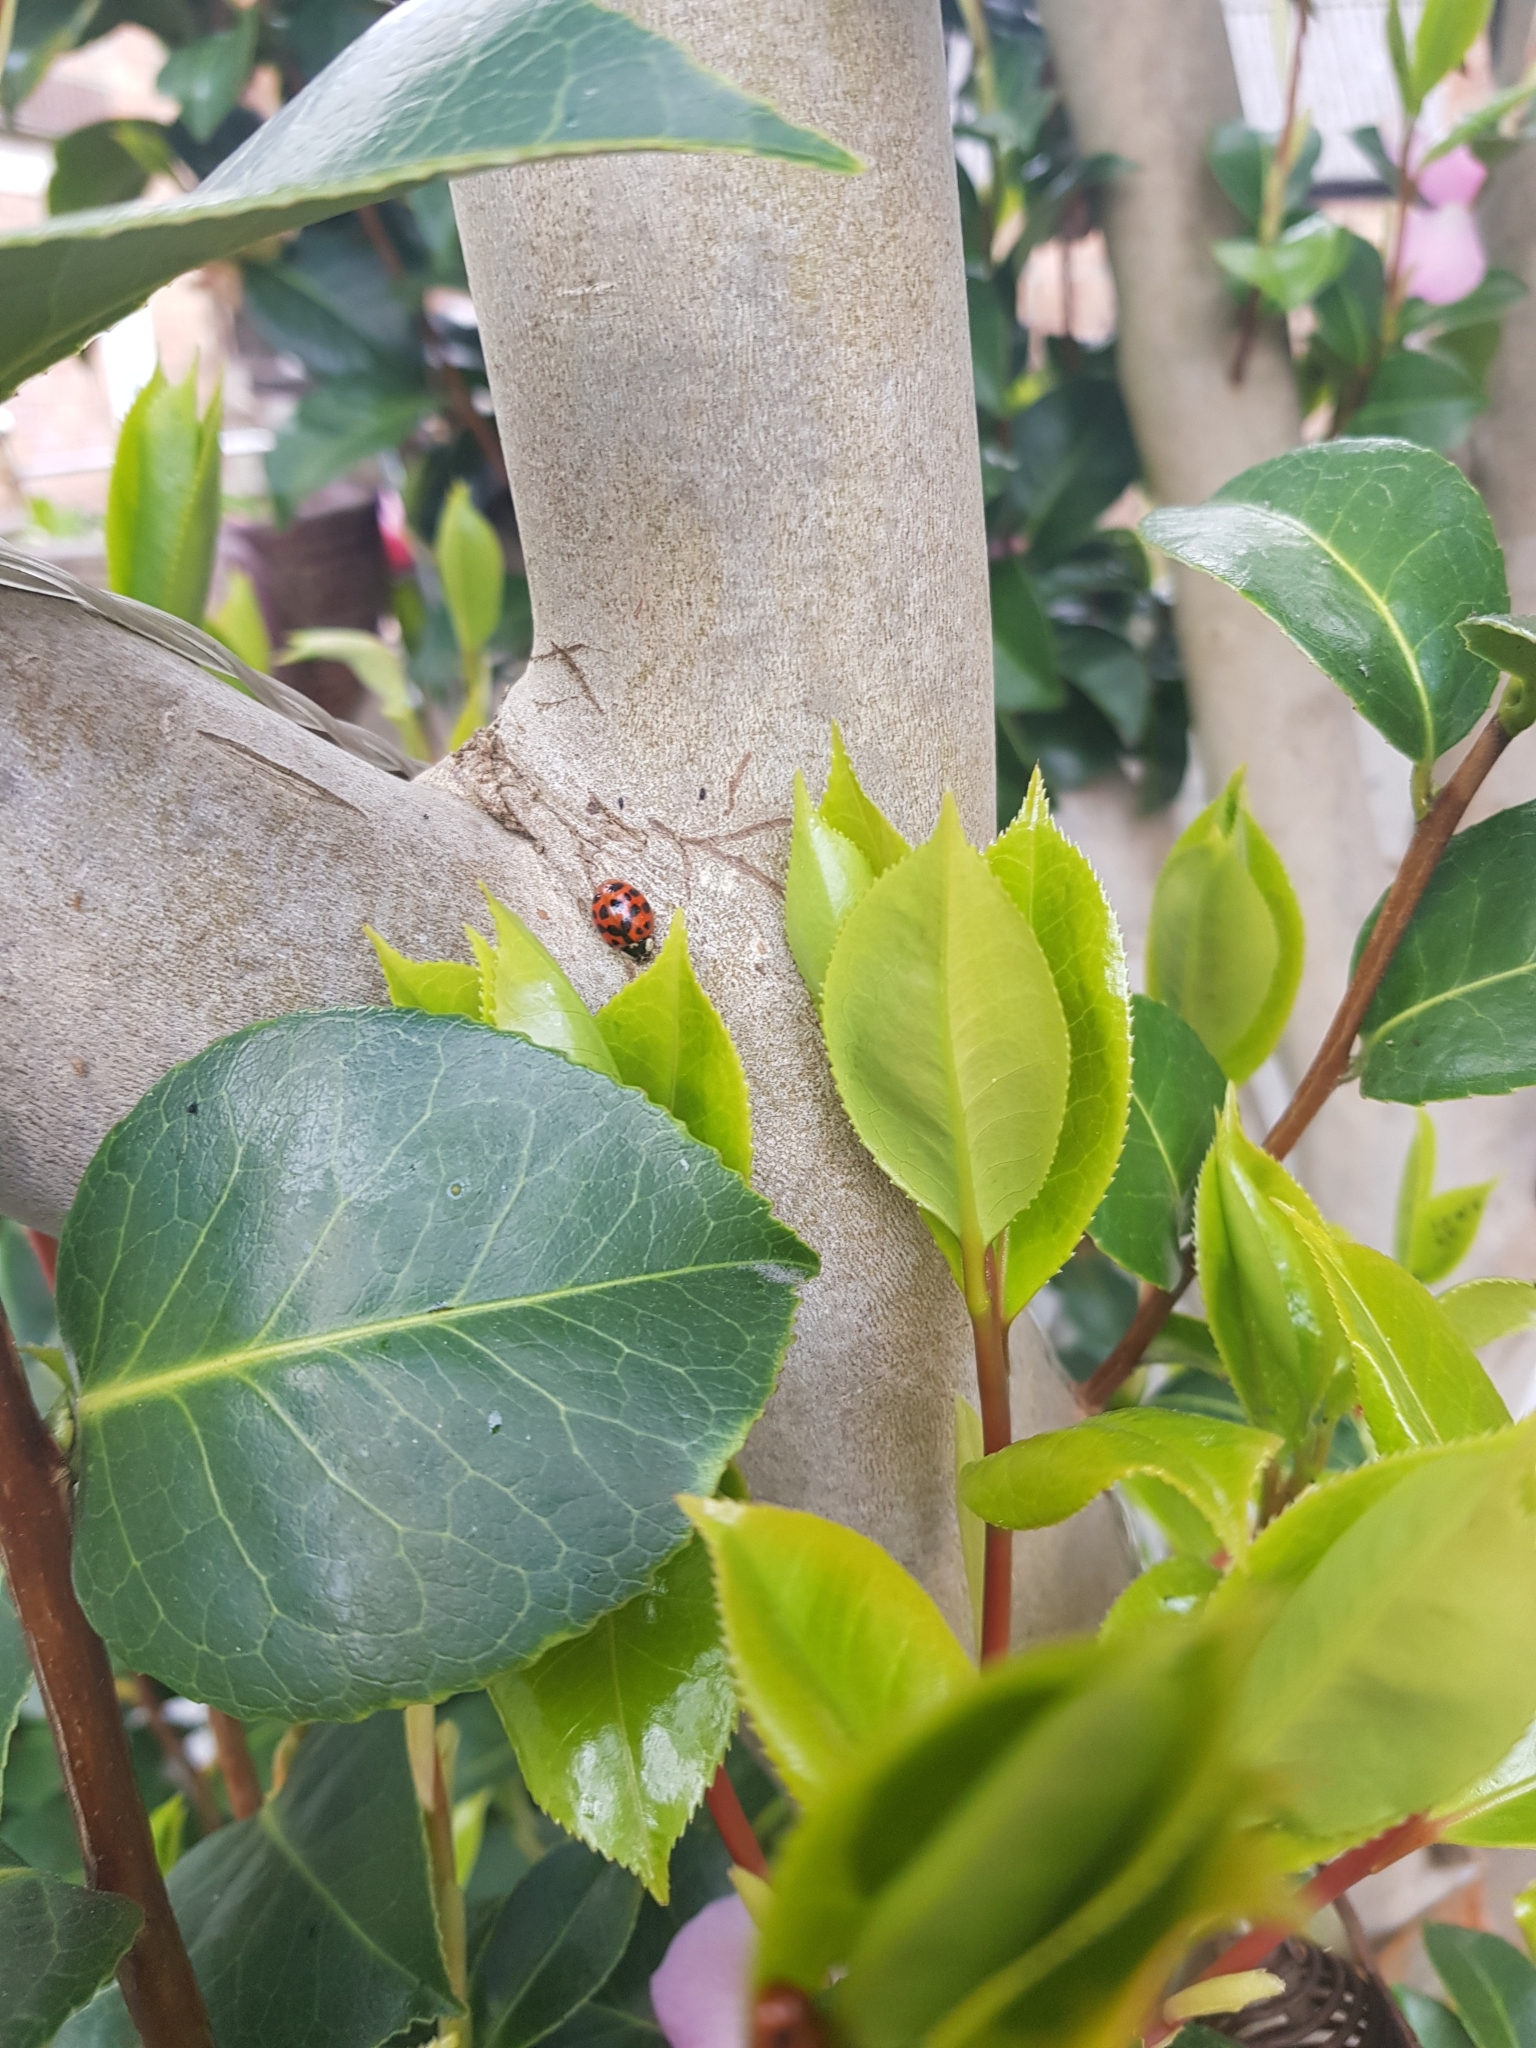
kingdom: Animalia
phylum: Arthropoda
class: Insecta
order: Coleoptera
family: Coccinellidae
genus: Harmonia
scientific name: Harmonia axyridis
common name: Harlequin ladybird
